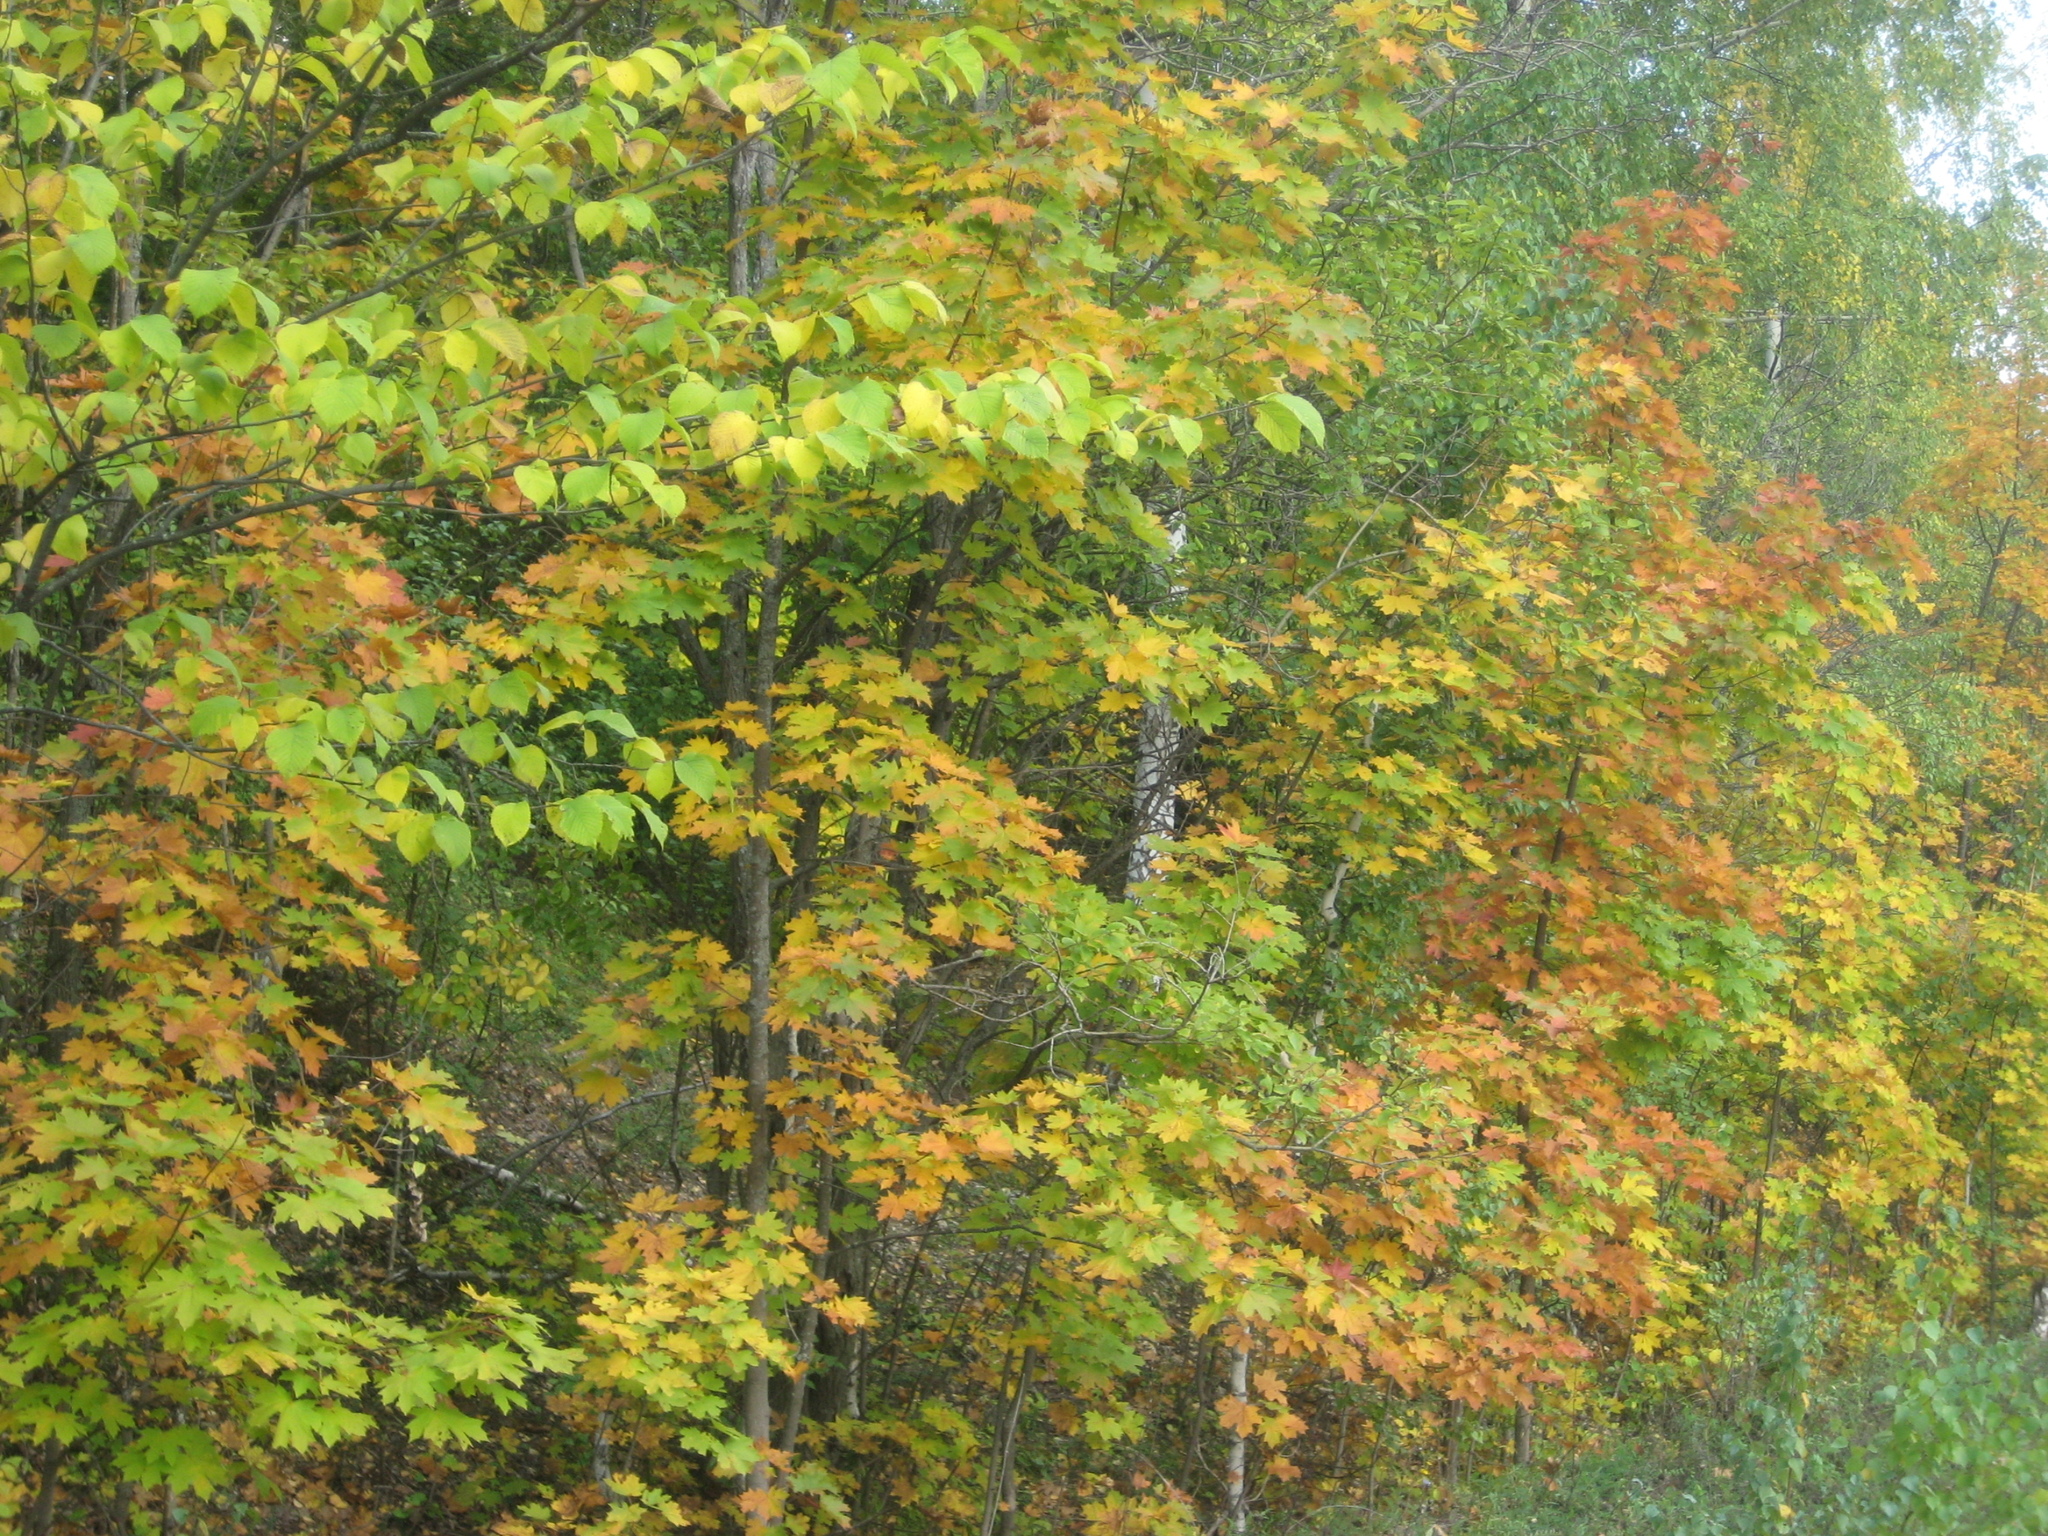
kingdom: Plantae
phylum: Tracheophyta
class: Magnoliopsida
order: Sapindales
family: Sapindaceae
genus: Acer
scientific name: Acer platanoides
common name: Norway maple
